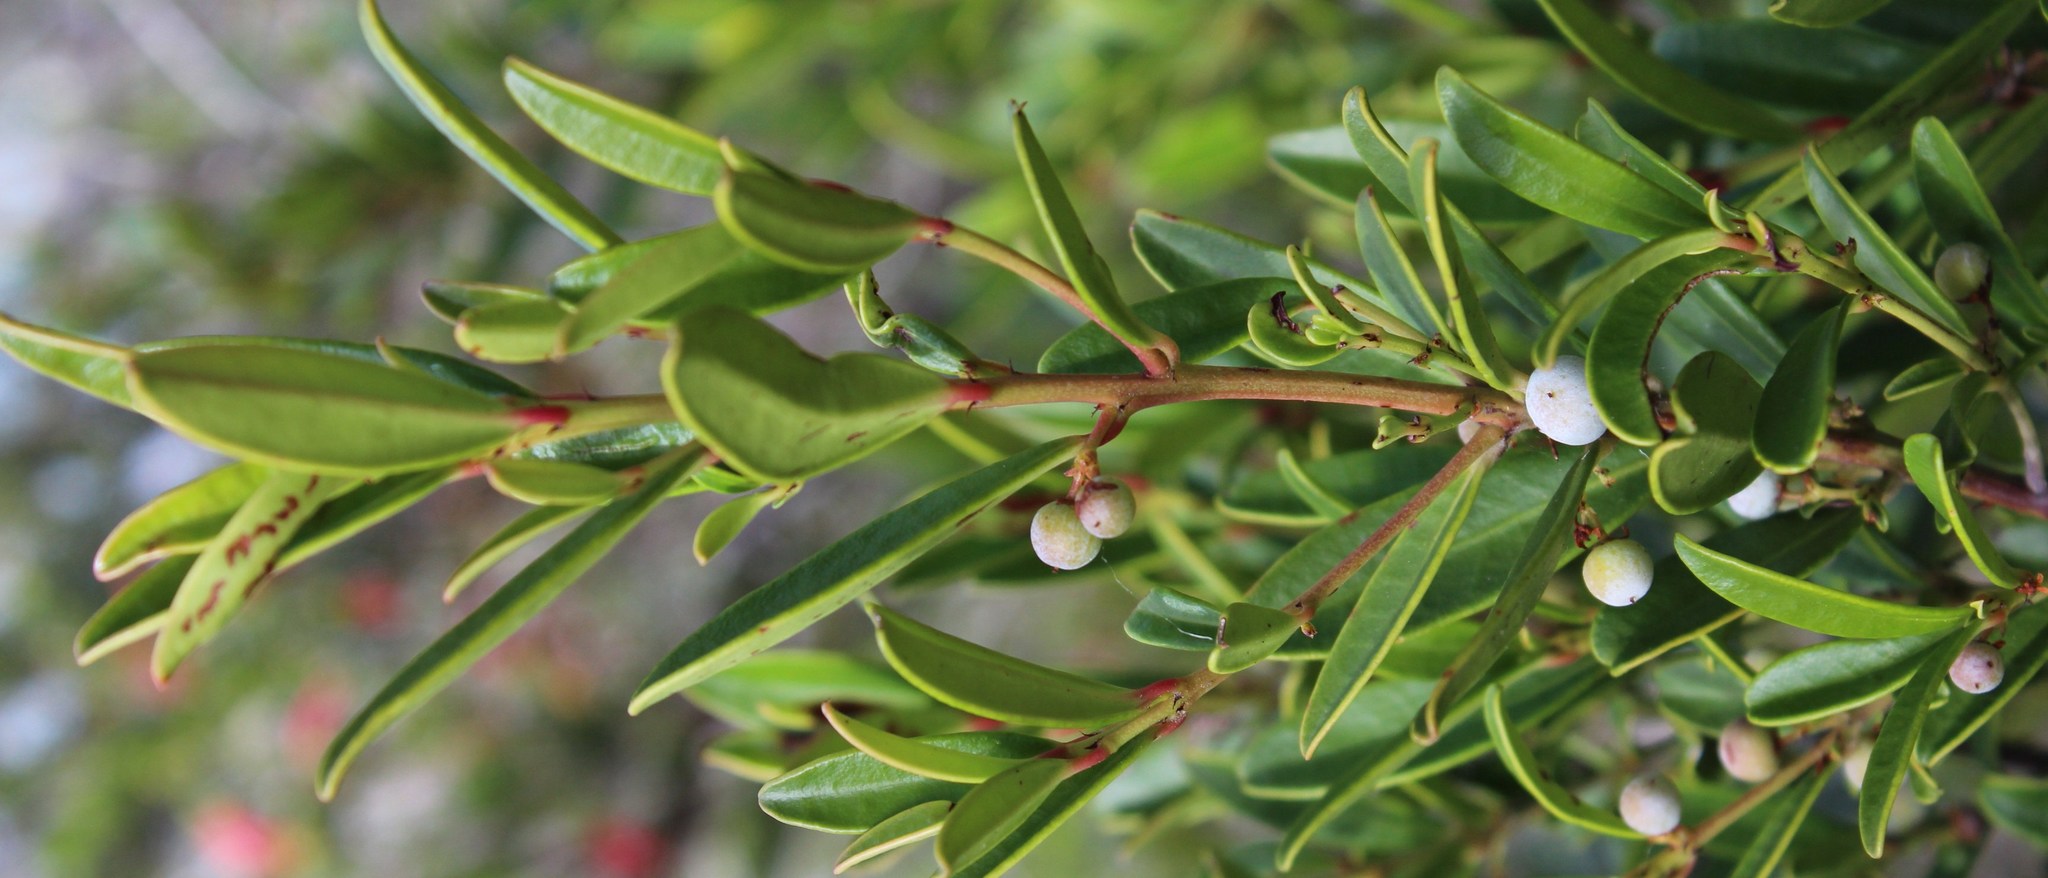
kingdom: Plantae
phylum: Tracheophyta
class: Magnoliopsida
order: Celastrales
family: Celastraceae
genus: Cassine
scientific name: Cassine parvifolia
